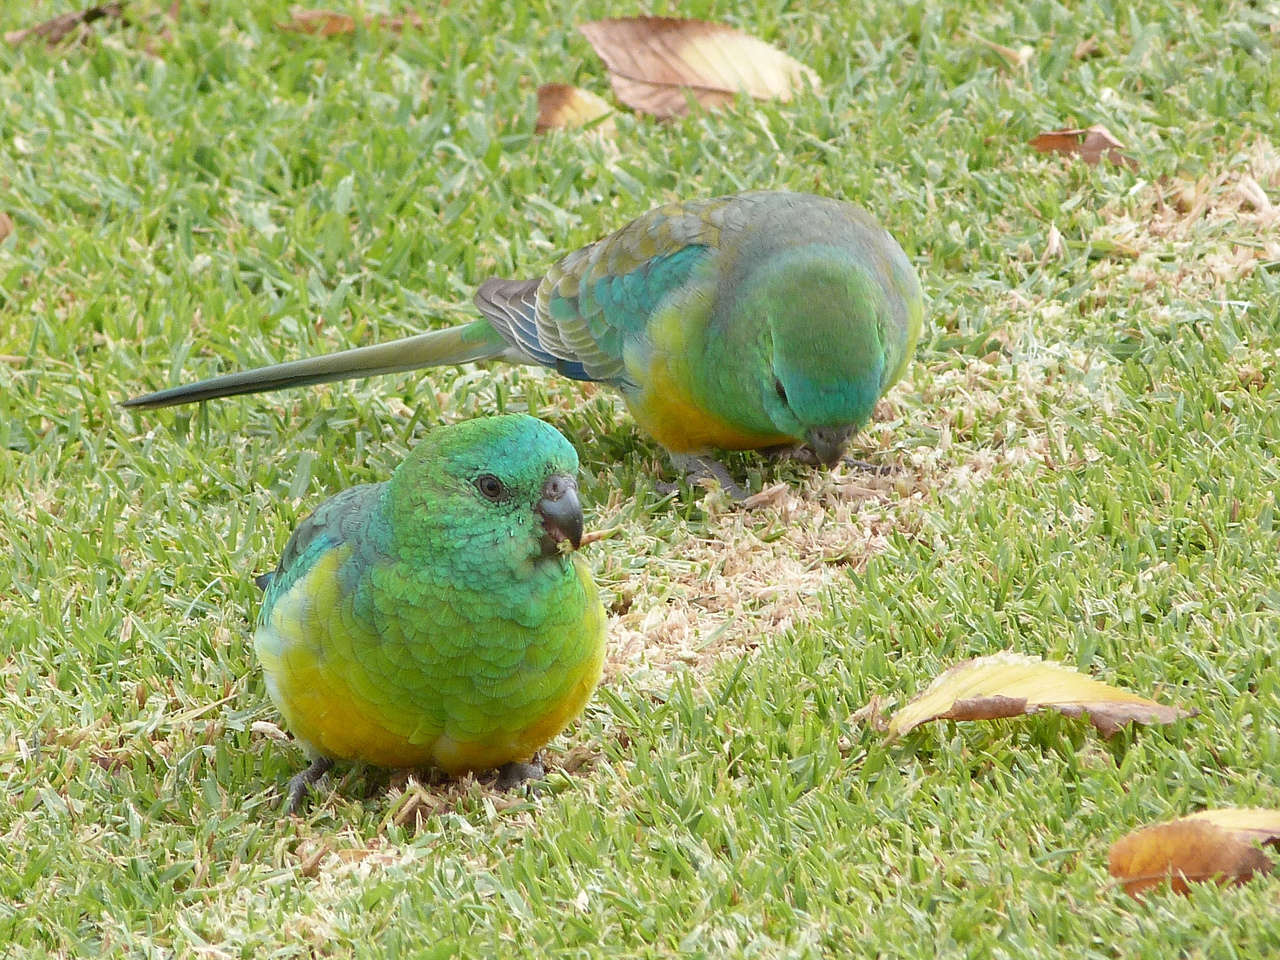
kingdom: Animalia
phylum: Chordata
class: Aves
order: Psittaciformes
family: Psittacidae
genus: Psephotus
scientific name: Psephotus haematonotus
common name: Red-rumped parrot
